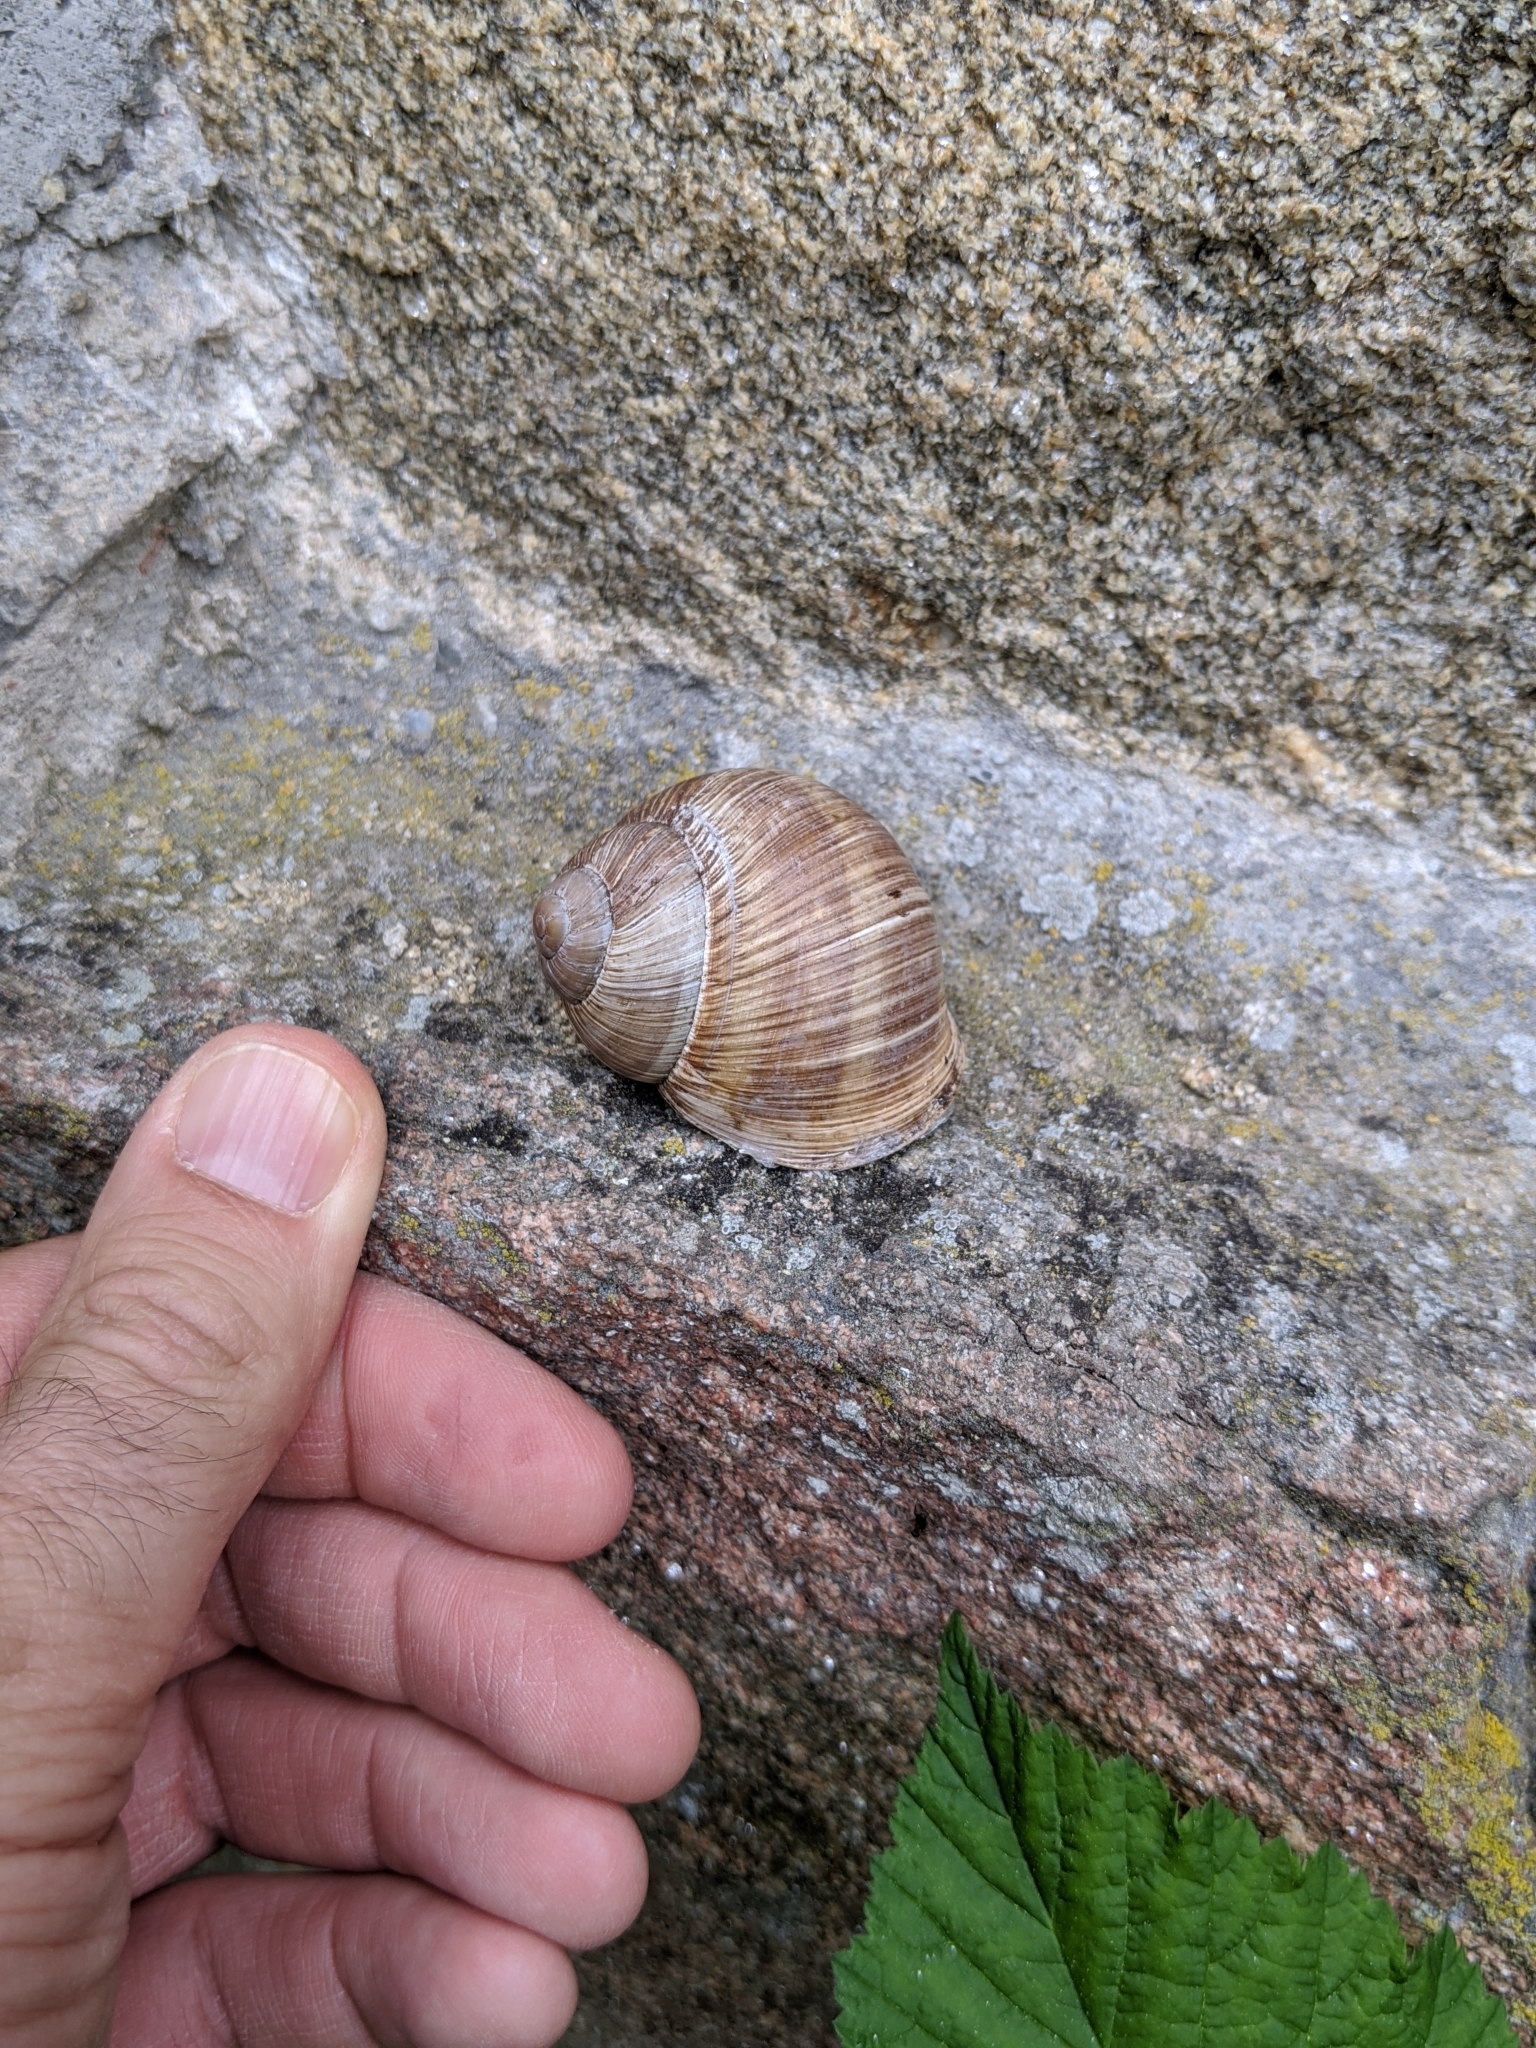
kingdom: Animalia
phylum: Mollusca
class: Gastropoda
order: Stylommatophora
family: Helicidae
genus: Helix
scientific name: Helix pomatia
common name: Roman snail
